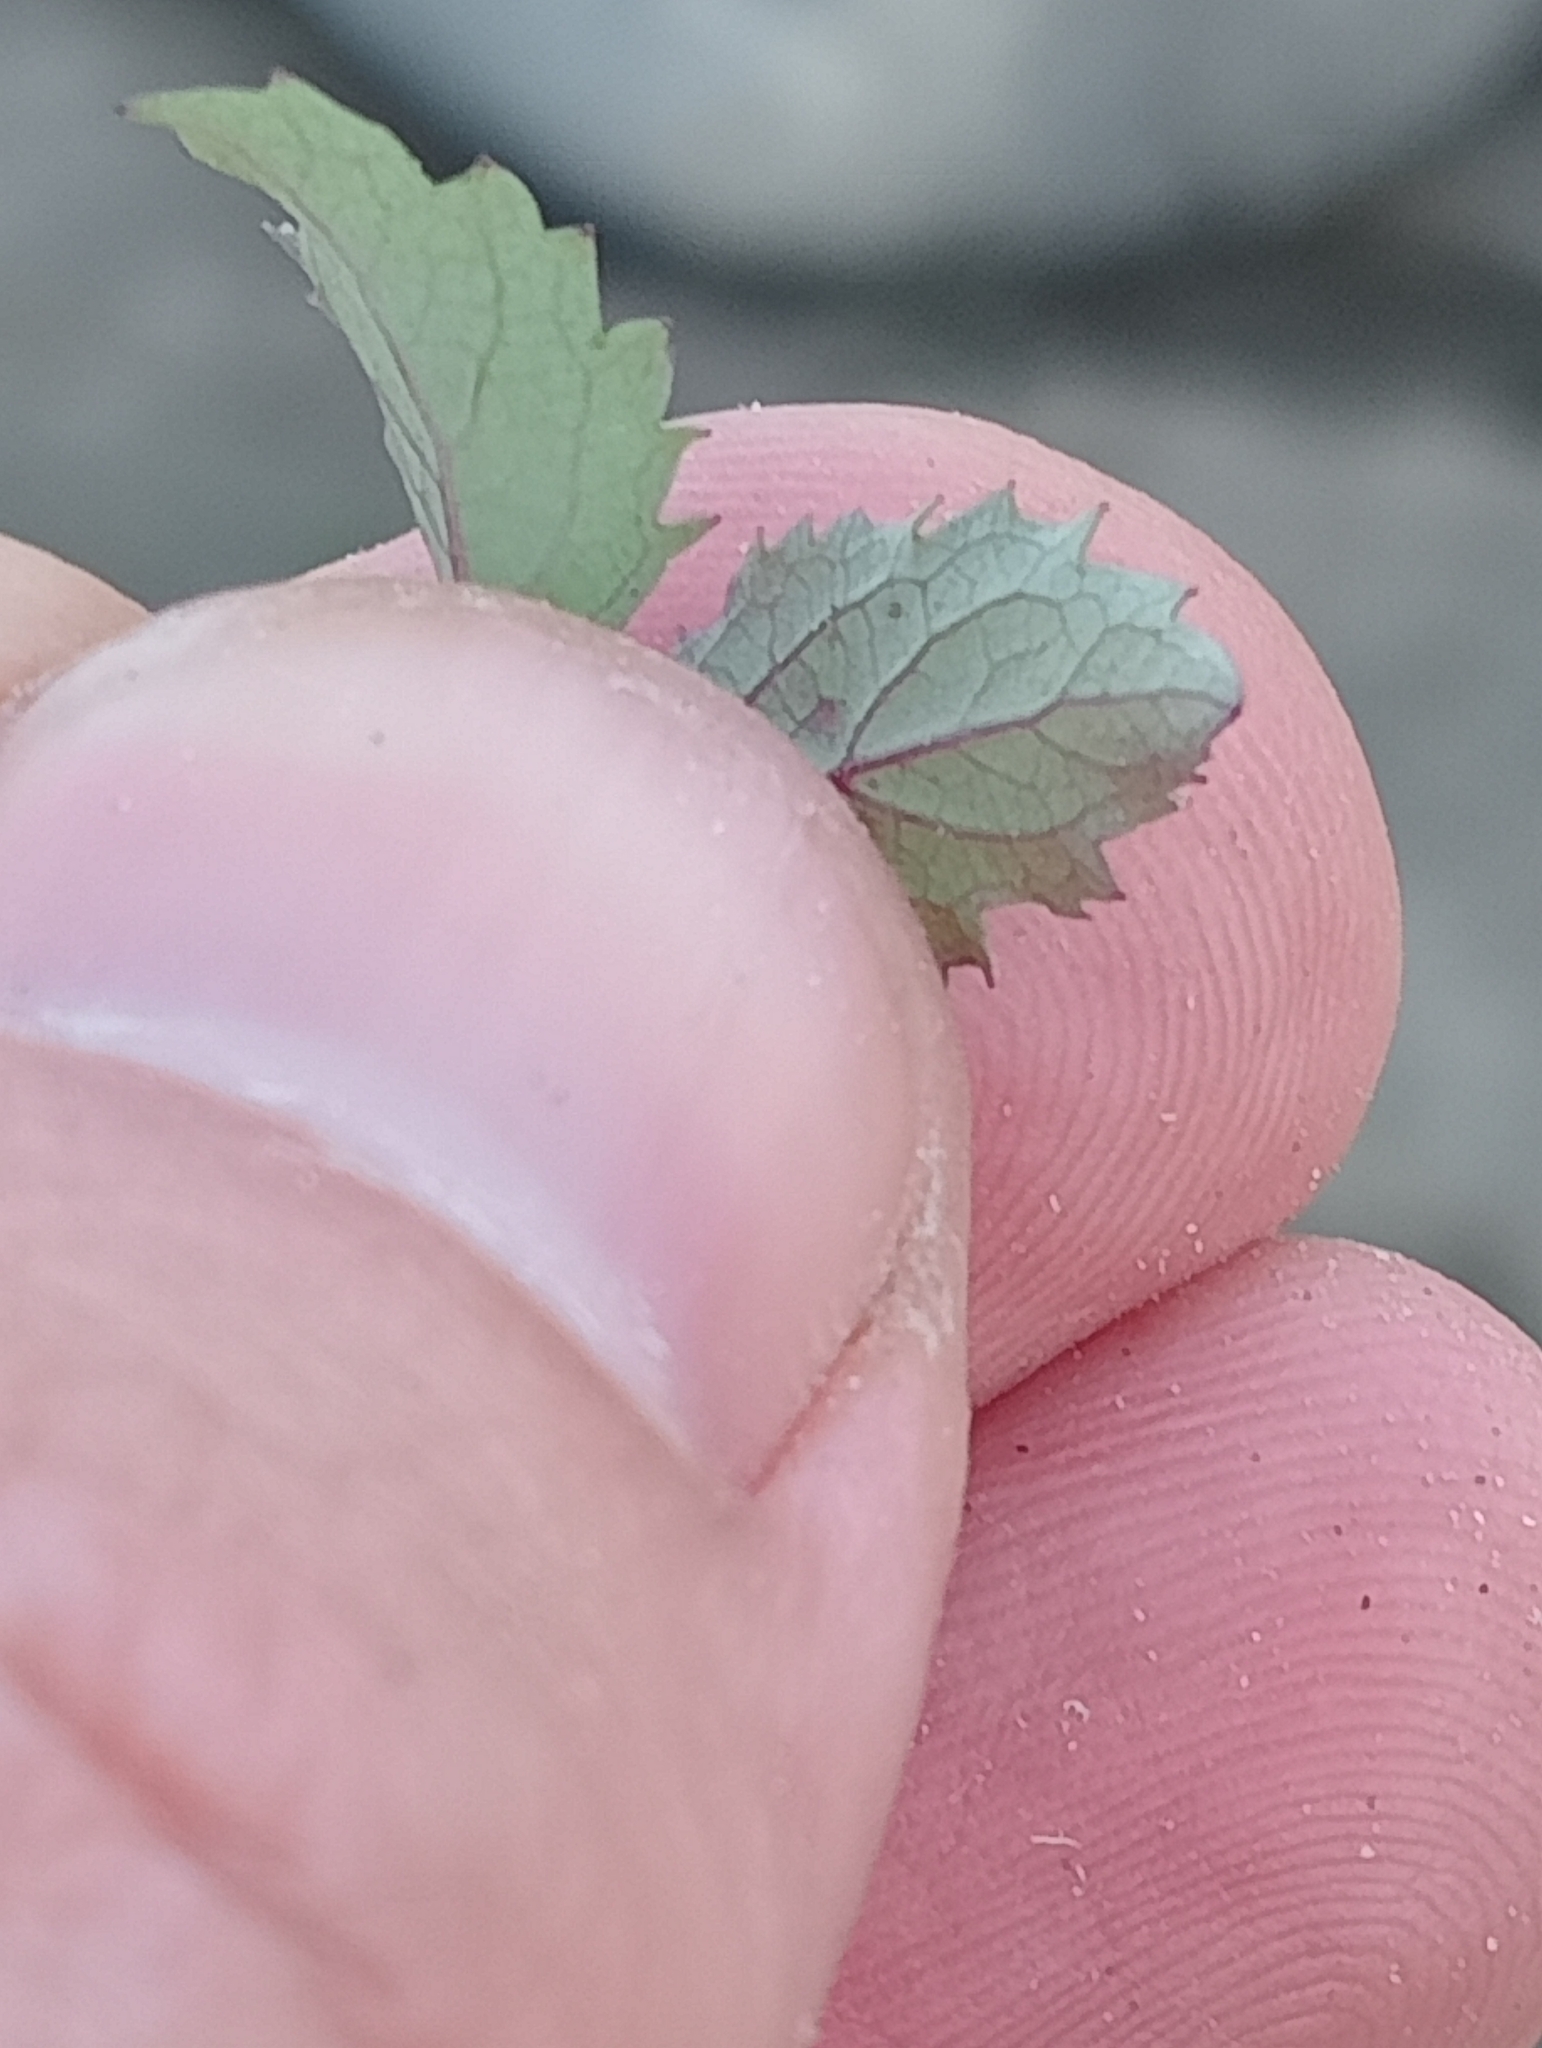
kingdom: Plantae
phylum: Tracheophyta
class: Magnoliopsida
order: Dipsacales
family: Caprifoliaceae
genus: Leycesteria
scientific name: Leycesteria formosa
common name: Himalayan honeysuckle
